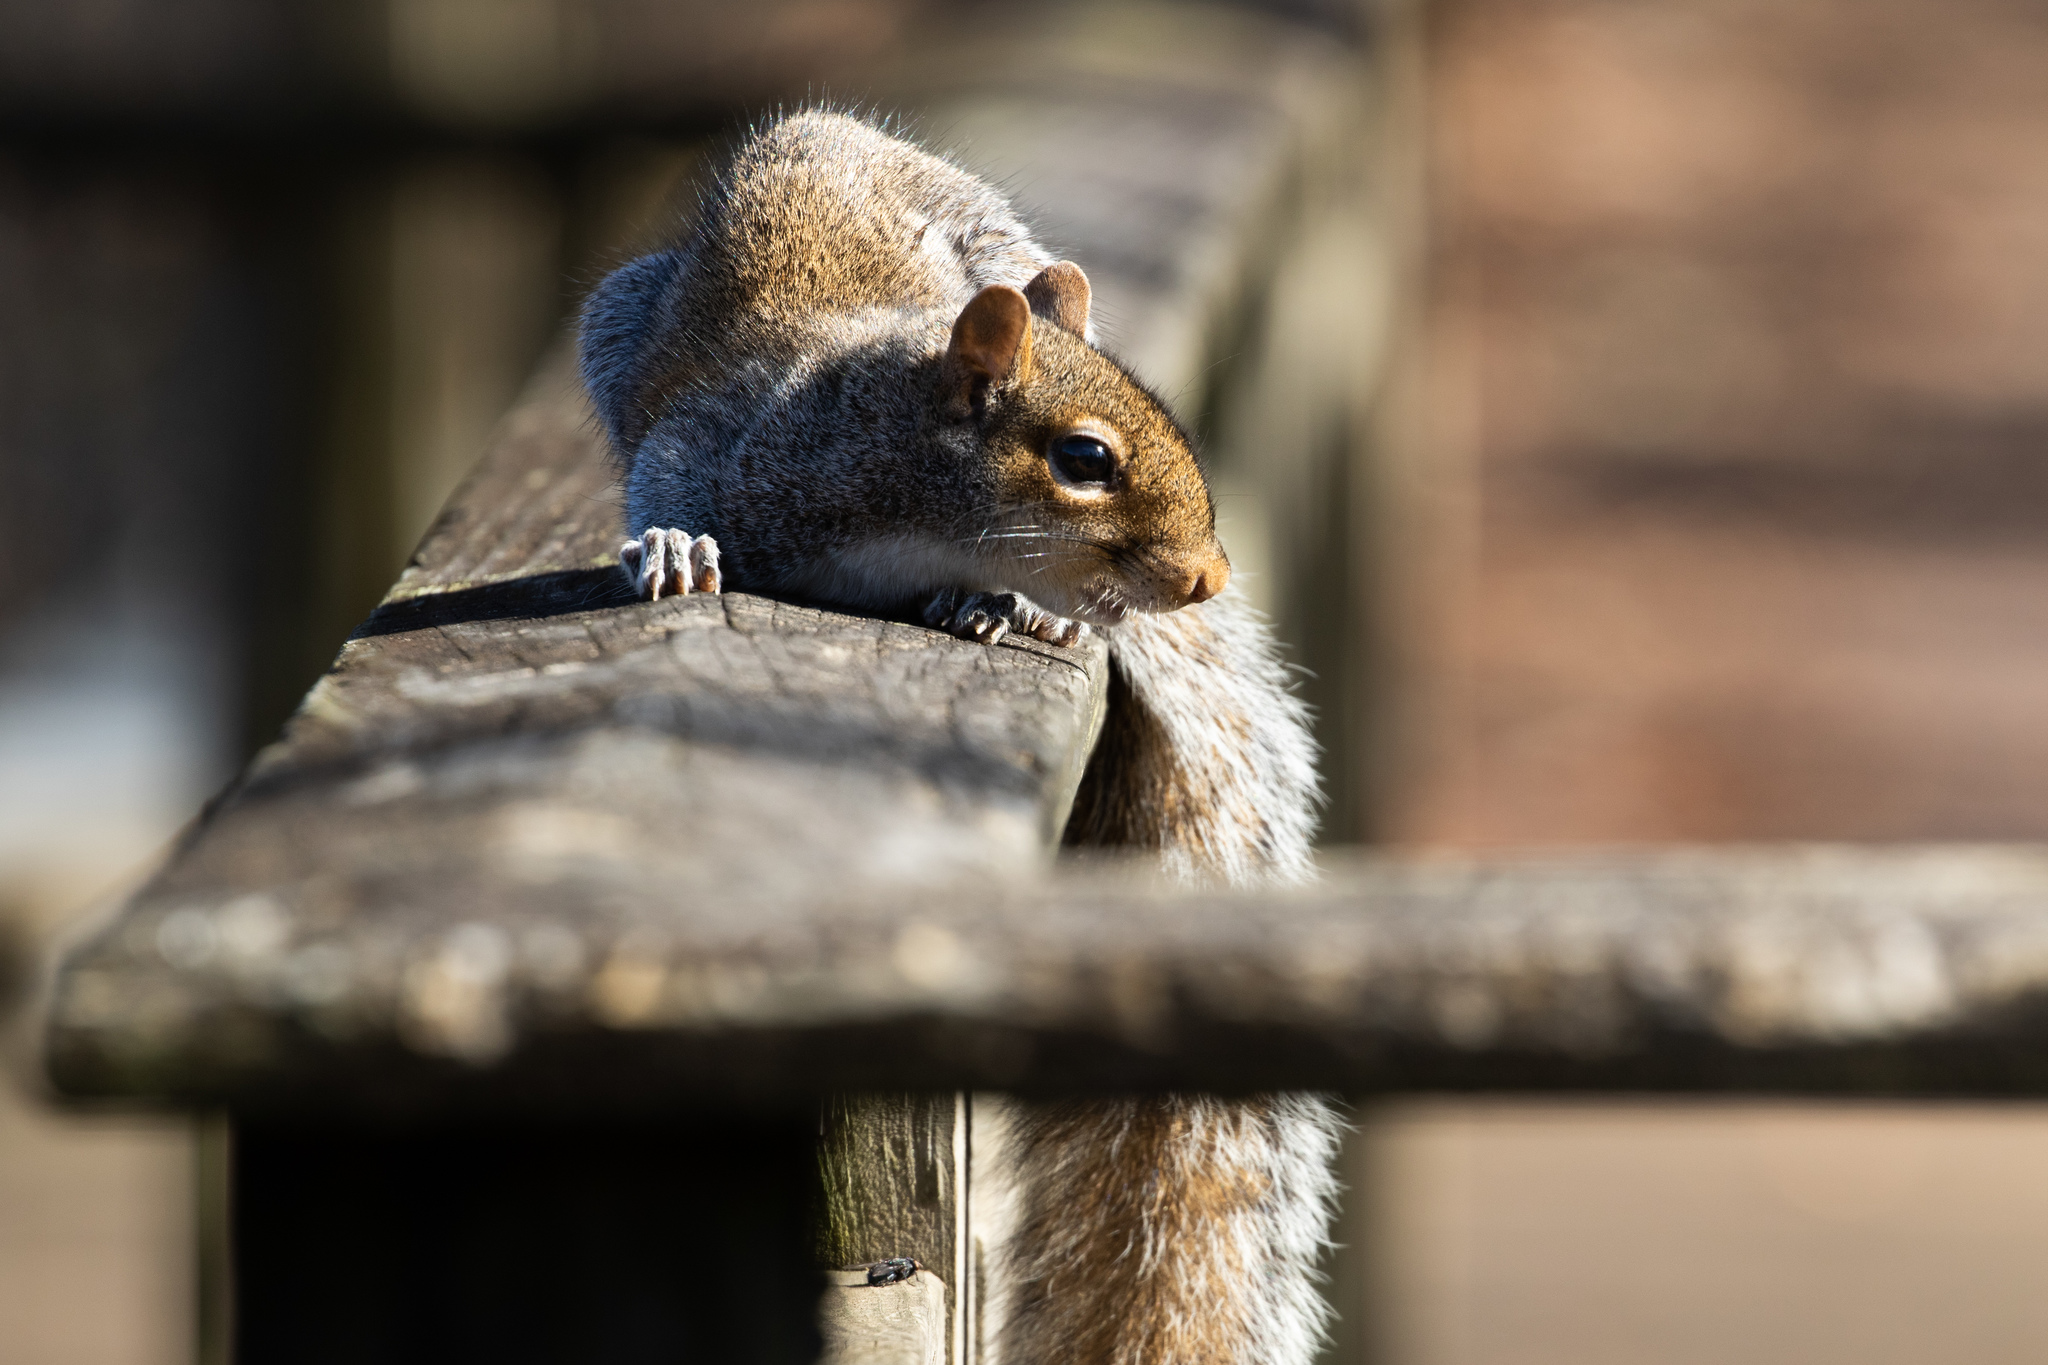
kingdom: Animalia
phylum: Chordata
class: Mammalia
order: Rodentia
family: Sciuridae
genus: Sciurus
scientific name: Sciurus carolinensis
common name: Eastern gray squirrel
